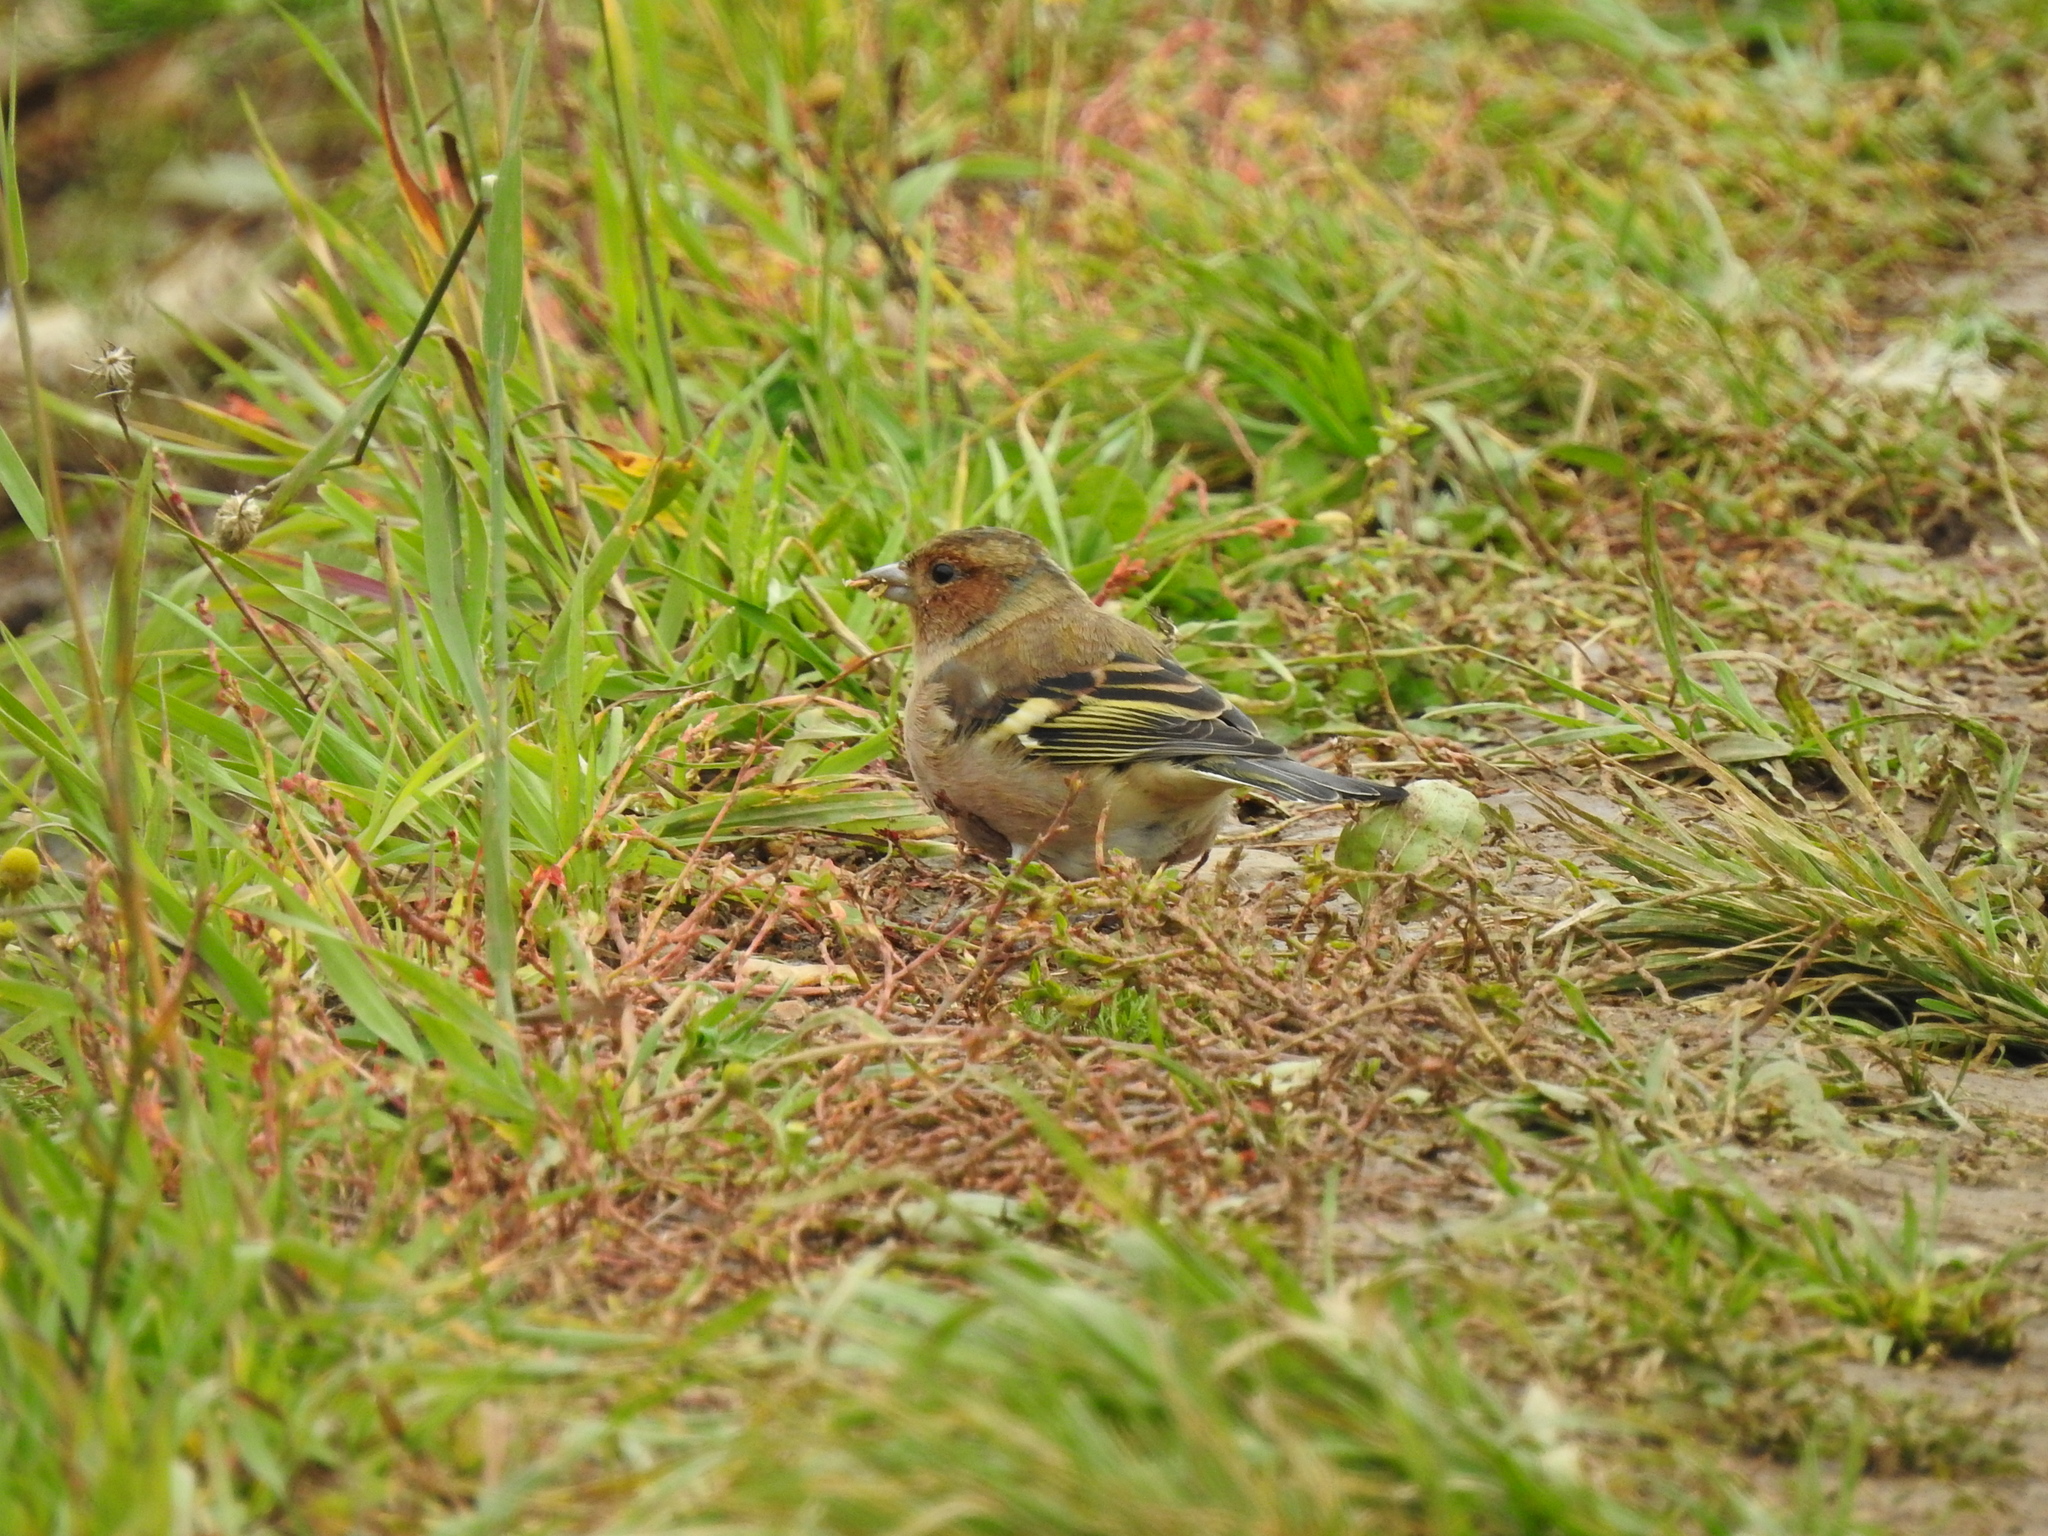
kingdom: Animalia
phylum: Chordata
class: Aves
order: Passeriformes
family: Fringillidae
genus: Fringilla
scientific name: Fringilla coelebs
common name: Common chaffinch
